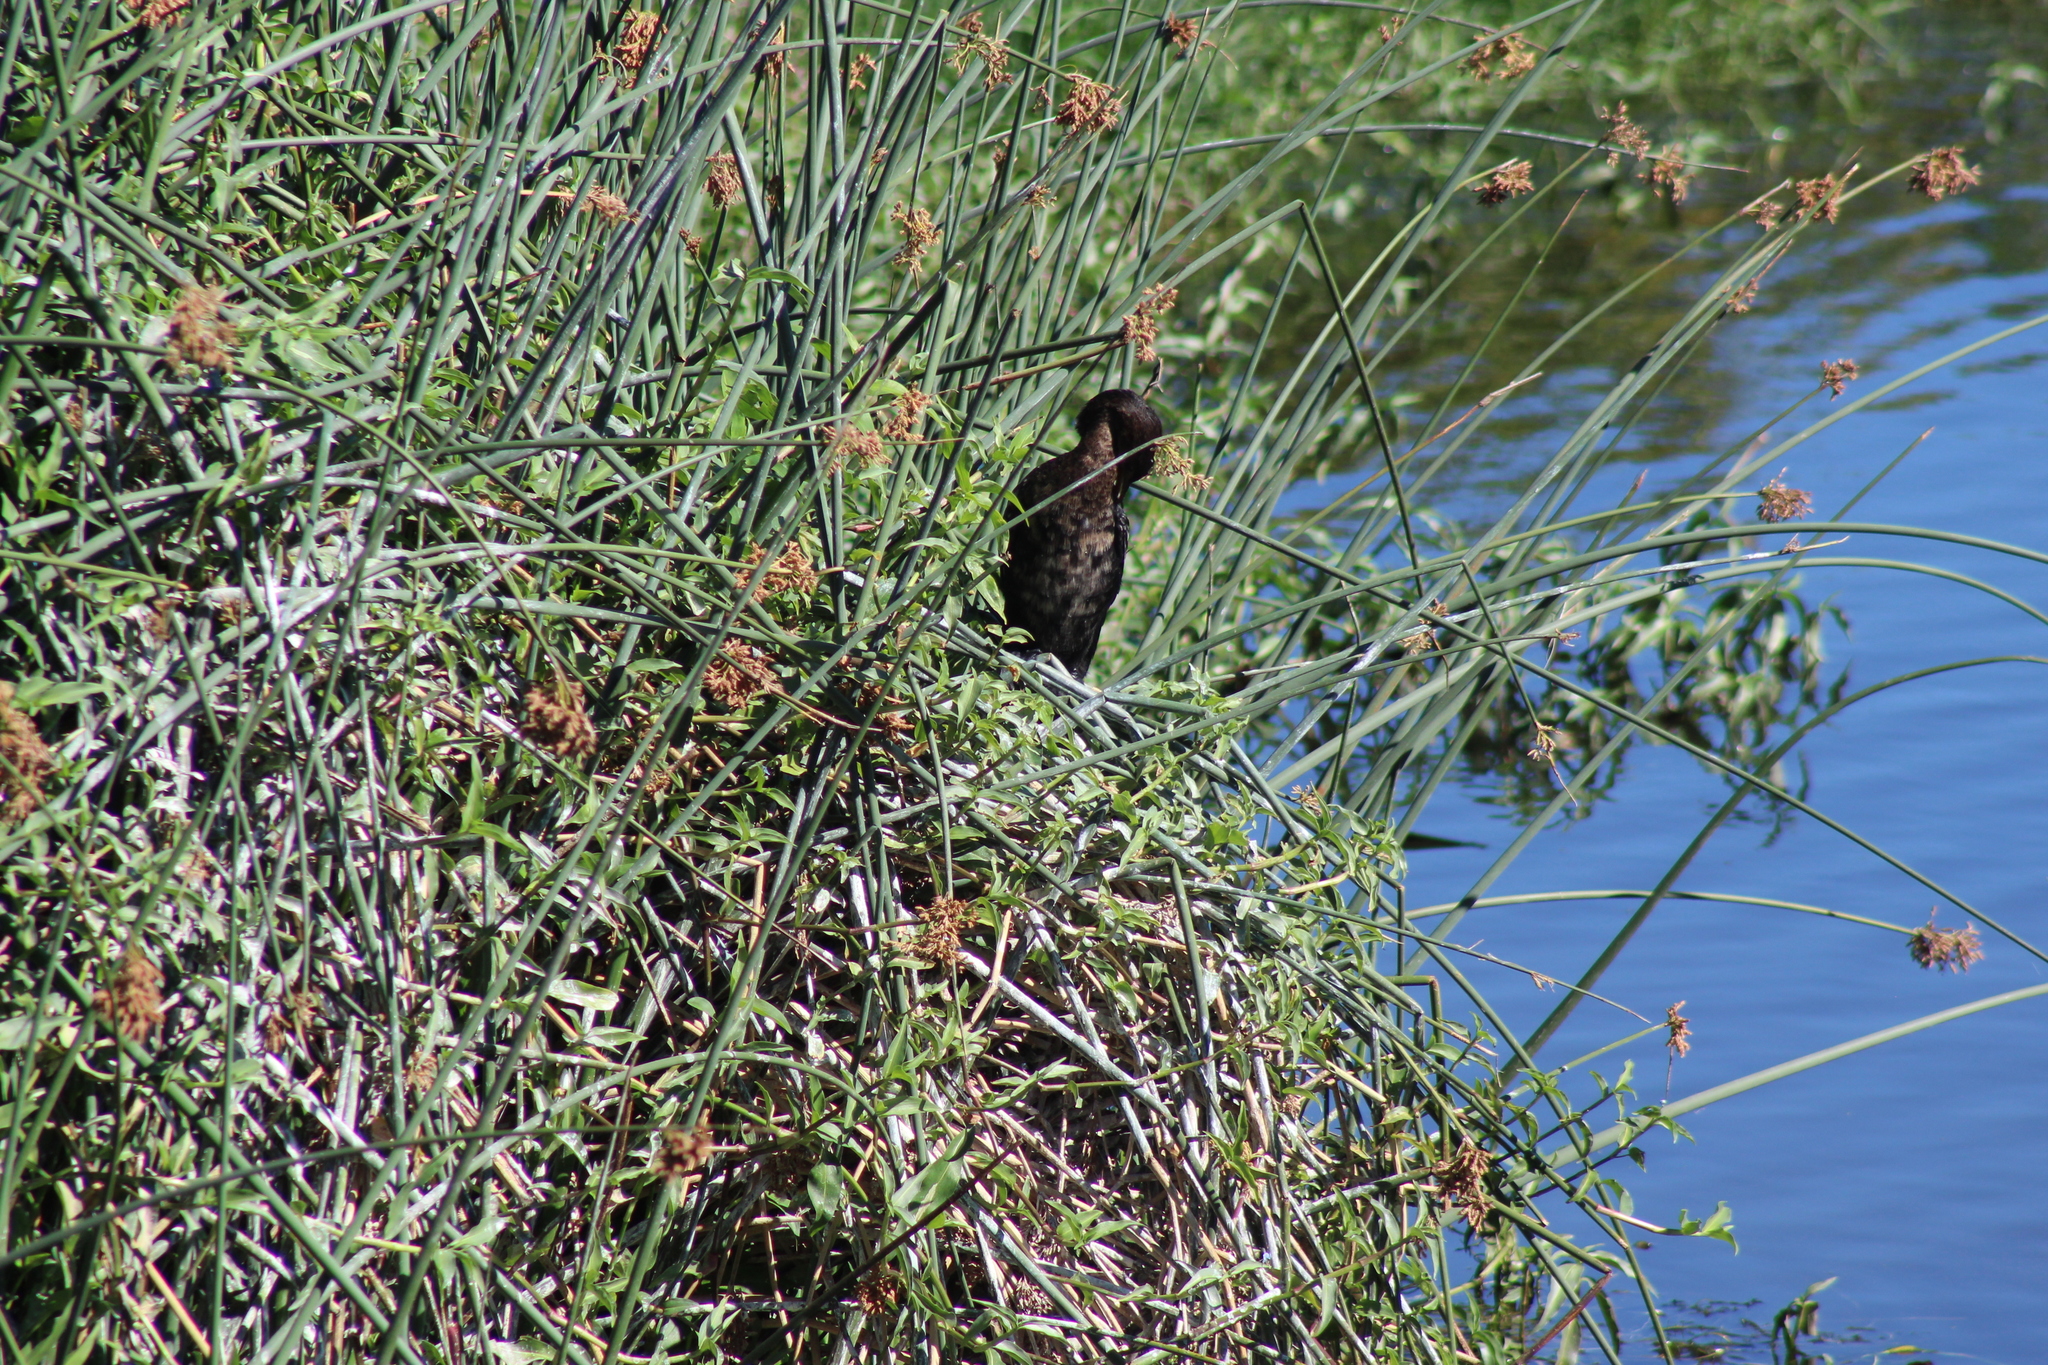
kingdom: Animalia
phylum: Chordata
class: Aves
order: Suliformes
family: Phalacrocoracidae
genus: Microcarbo
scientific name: Microcarbo africanus
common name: Long-tailed cormorant
